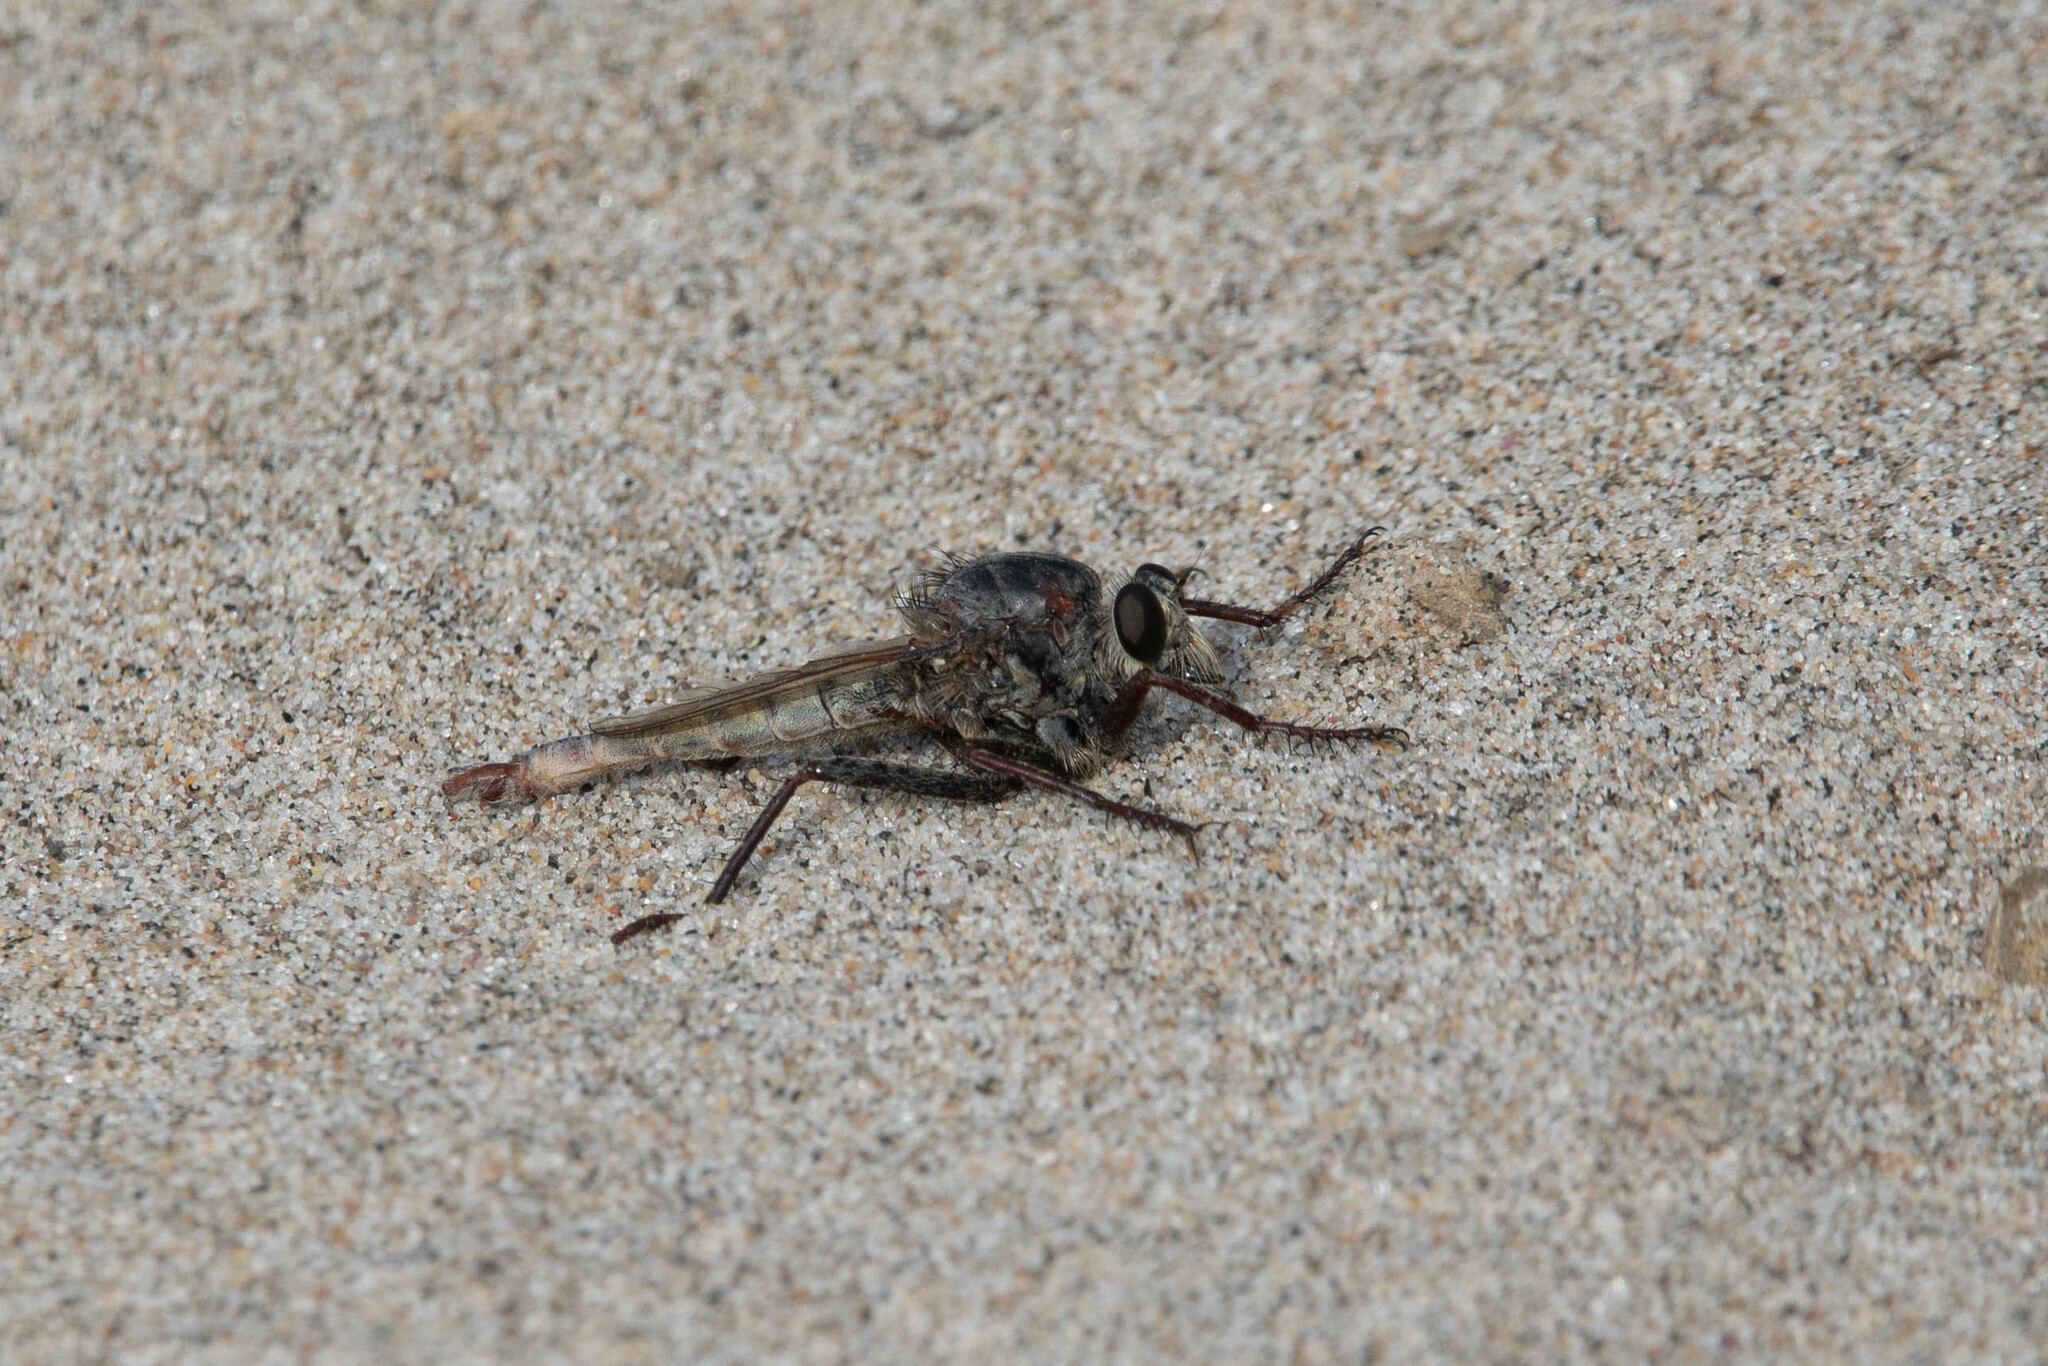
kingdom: Animalia
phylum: Arthropoda
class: Insecta
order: Diptera
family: Asilidae
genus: Proctacanthus
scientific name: Proctacanthus milbertii
